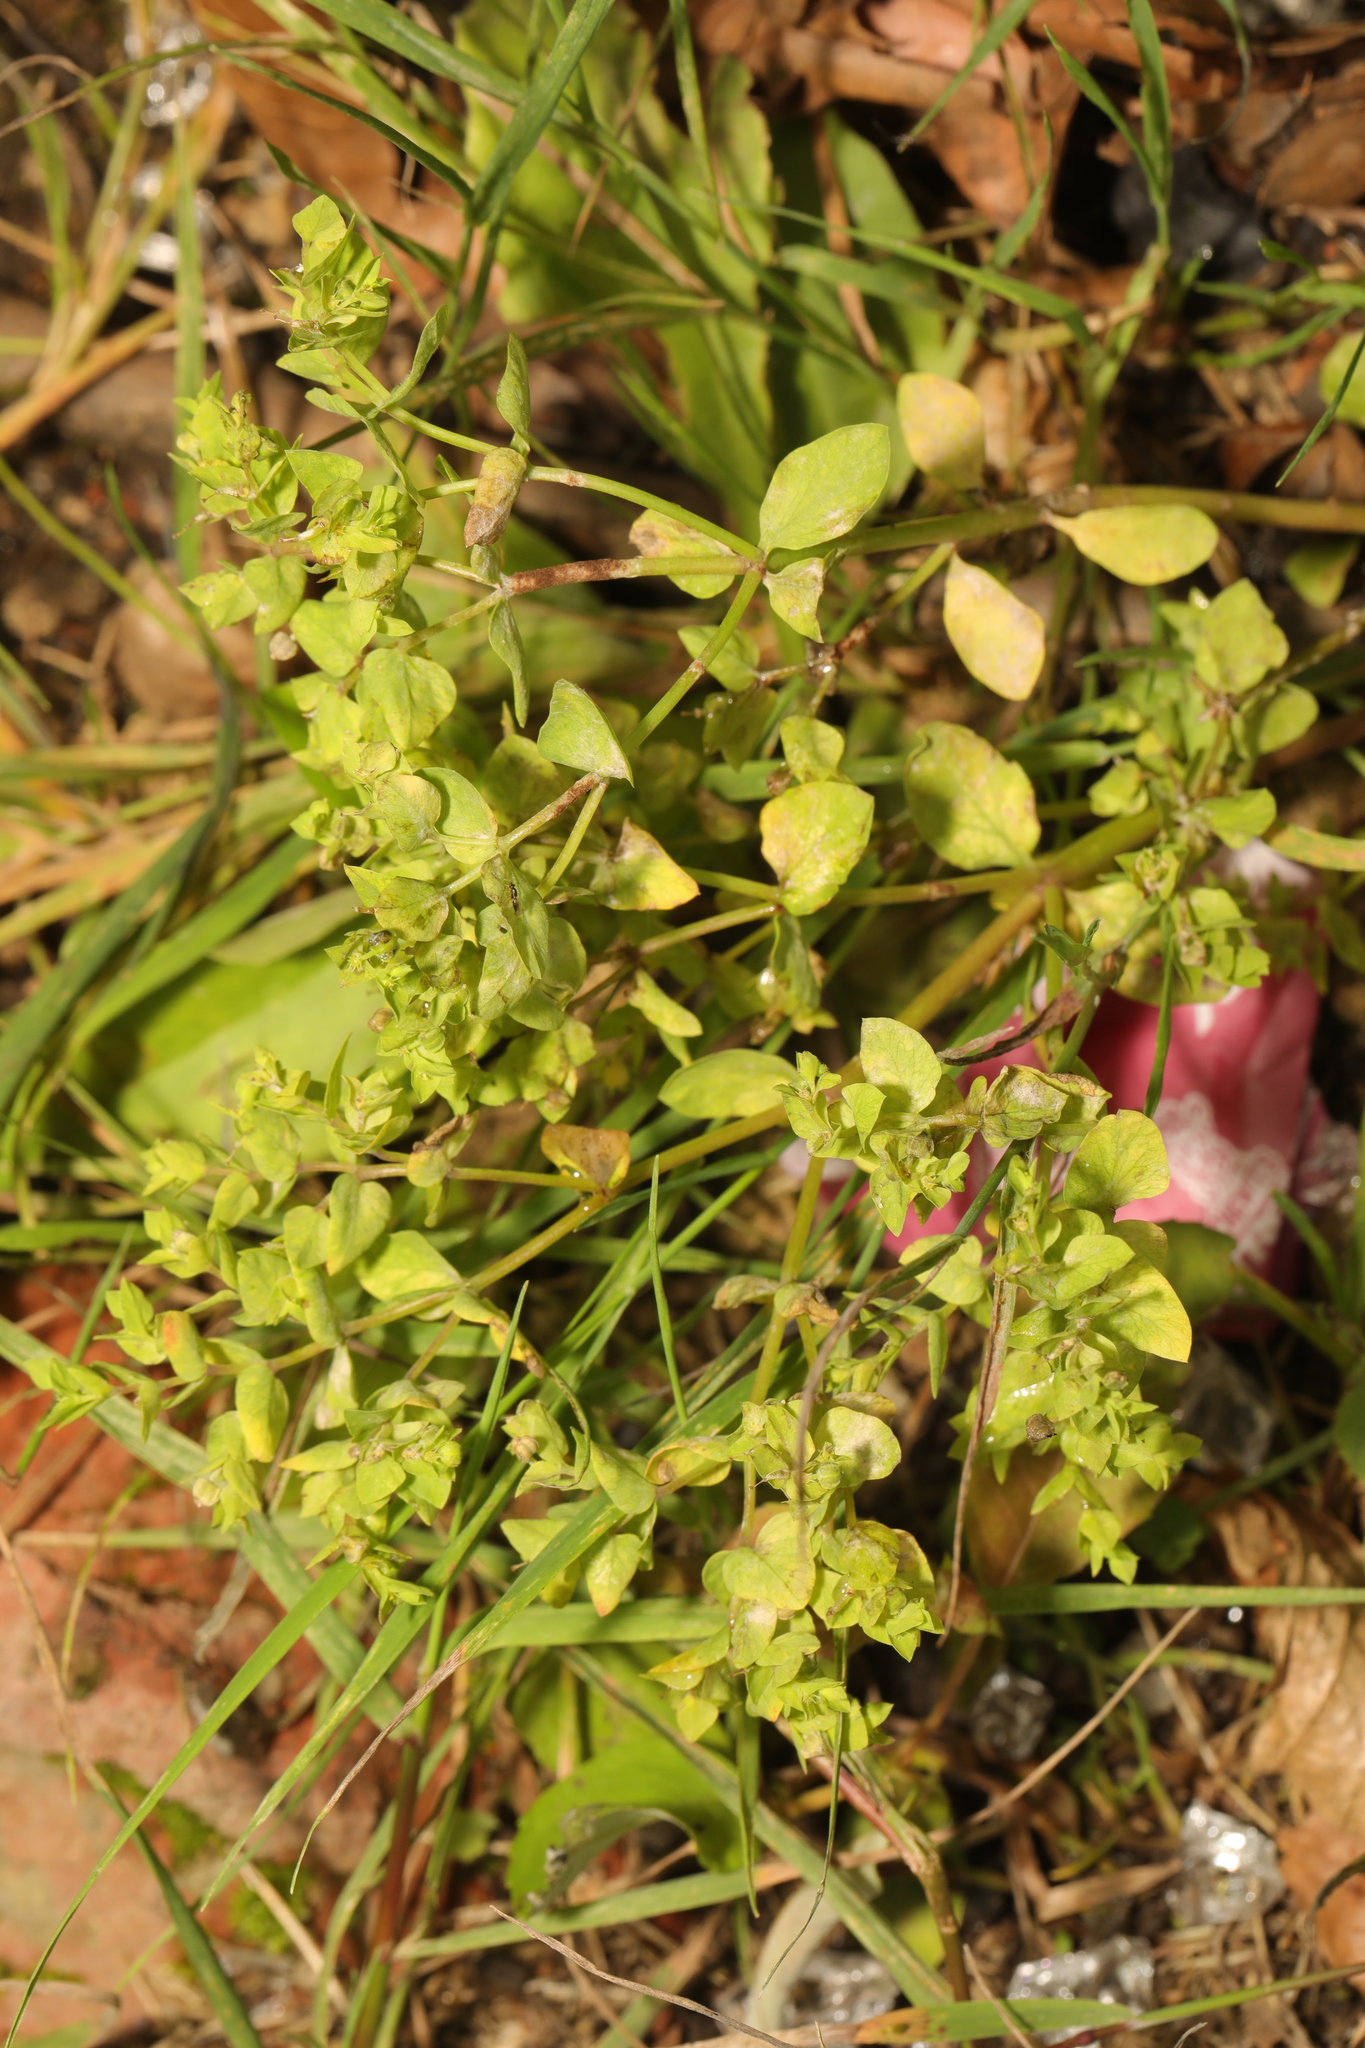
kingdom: Plantae
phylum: Tracheophyta
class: Magnoliopsida
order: Malpighiales
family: Euphorbiaceae
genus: Euphorbia
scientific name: Euphorbia peplus
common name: Petty spurge
